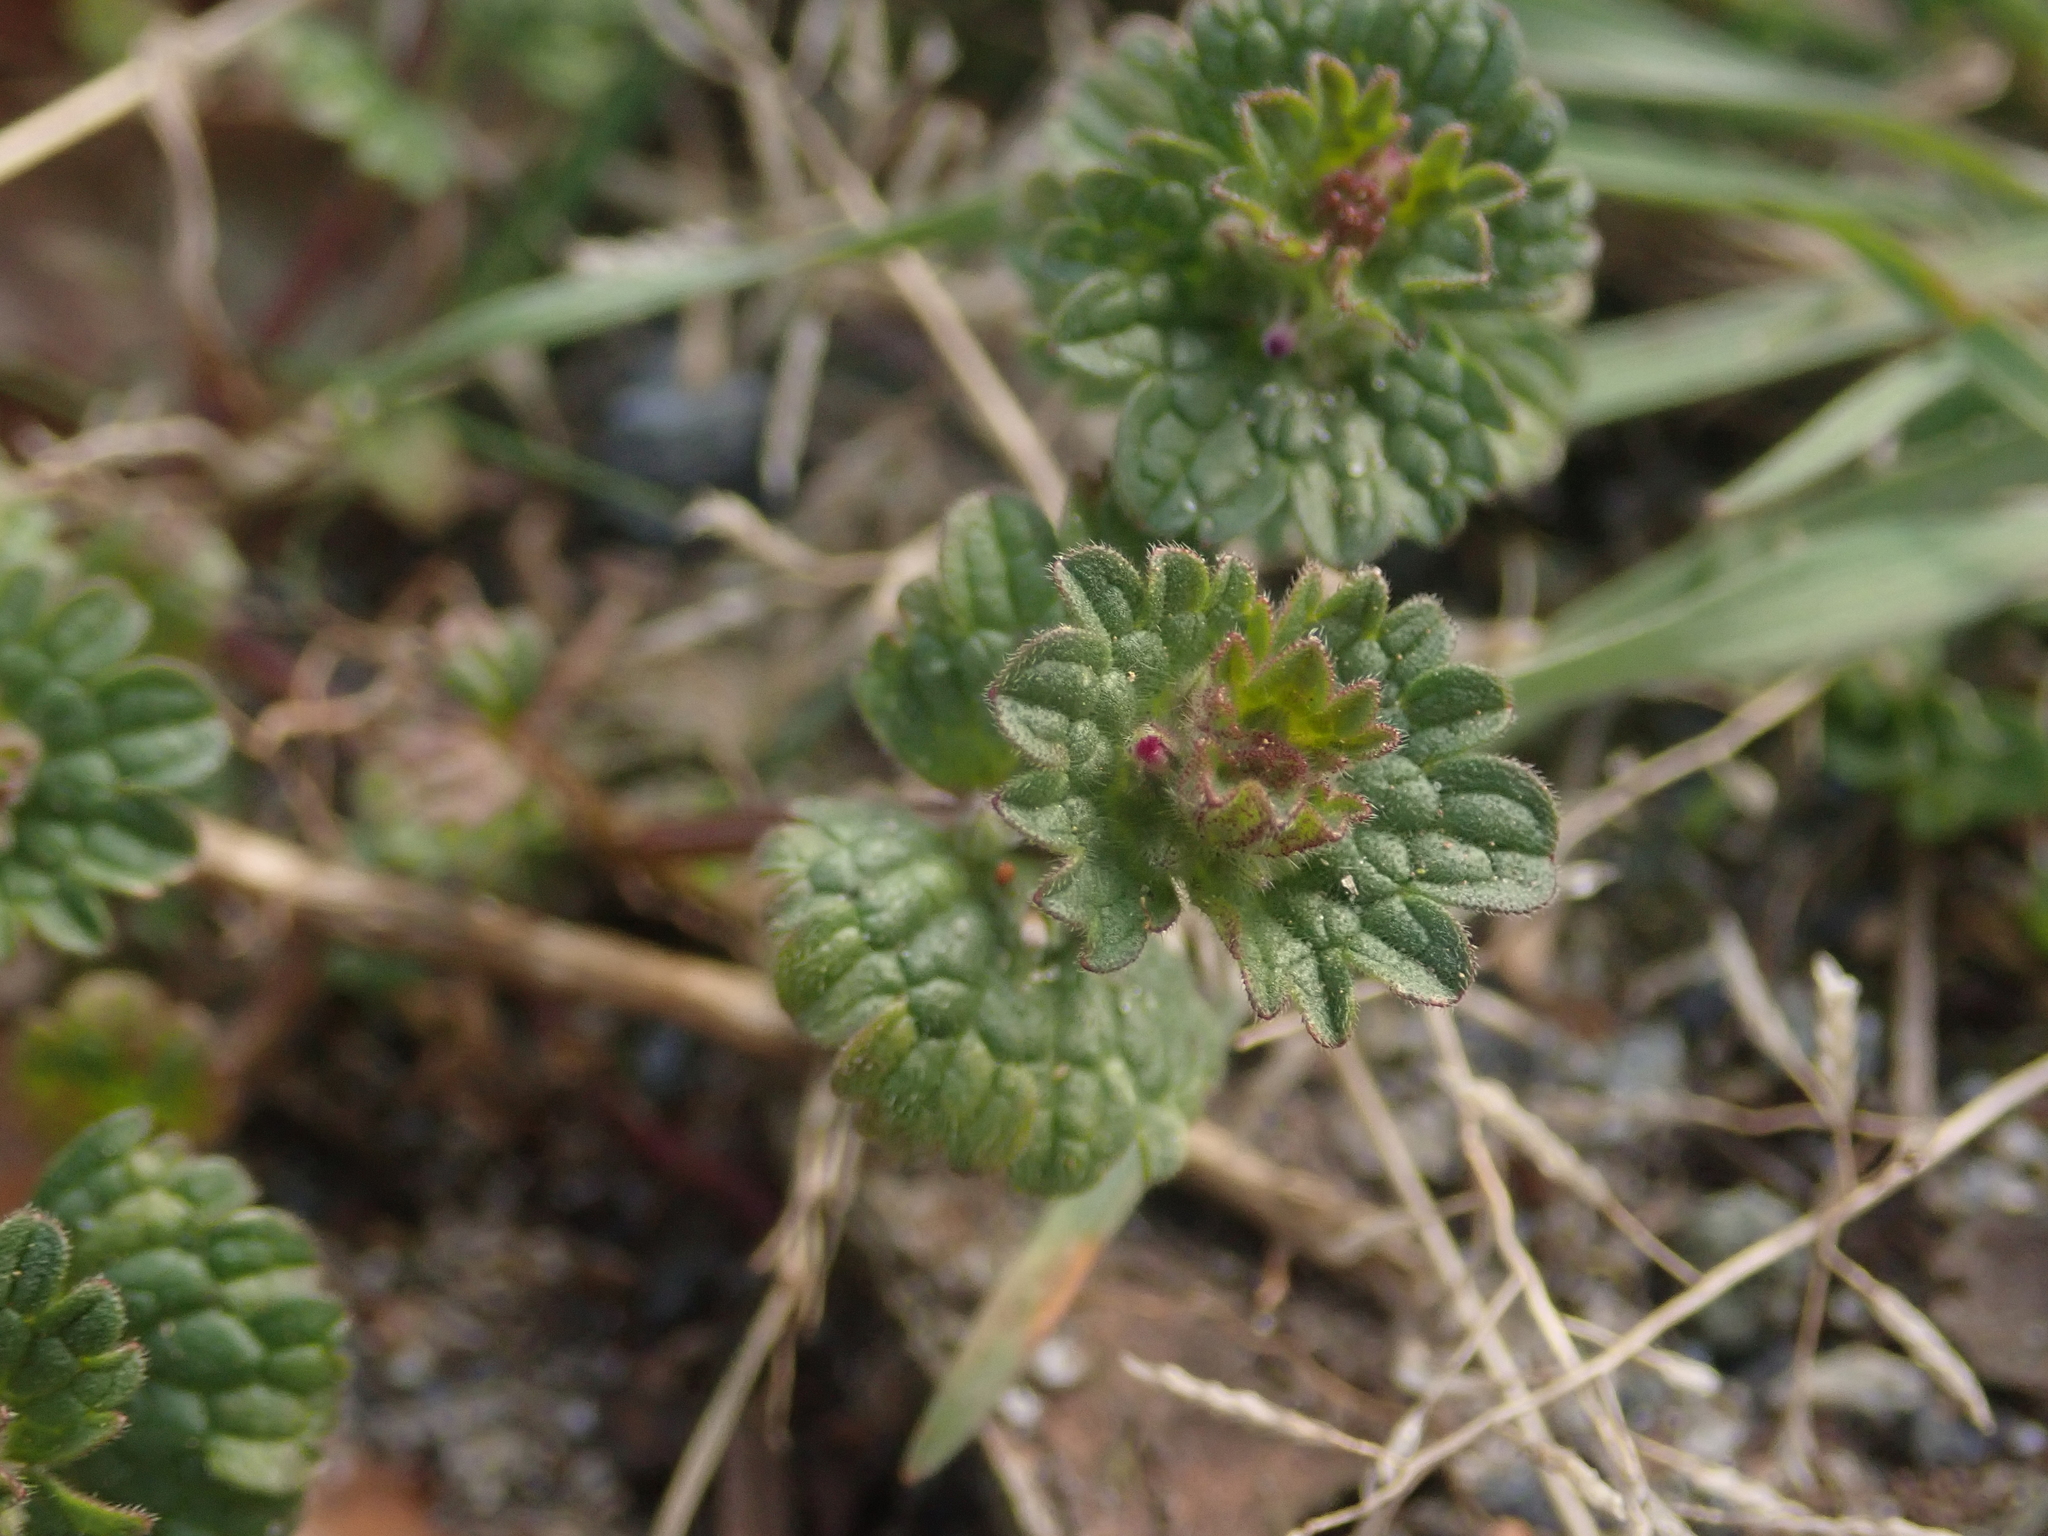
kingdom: Plantae
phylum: Tracheophyta
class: Magnoliopsida
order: Lamiales
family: Lamiaceae
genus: Lamium
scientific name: Lamium amplexicaule
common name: Henbit dead-nettle
